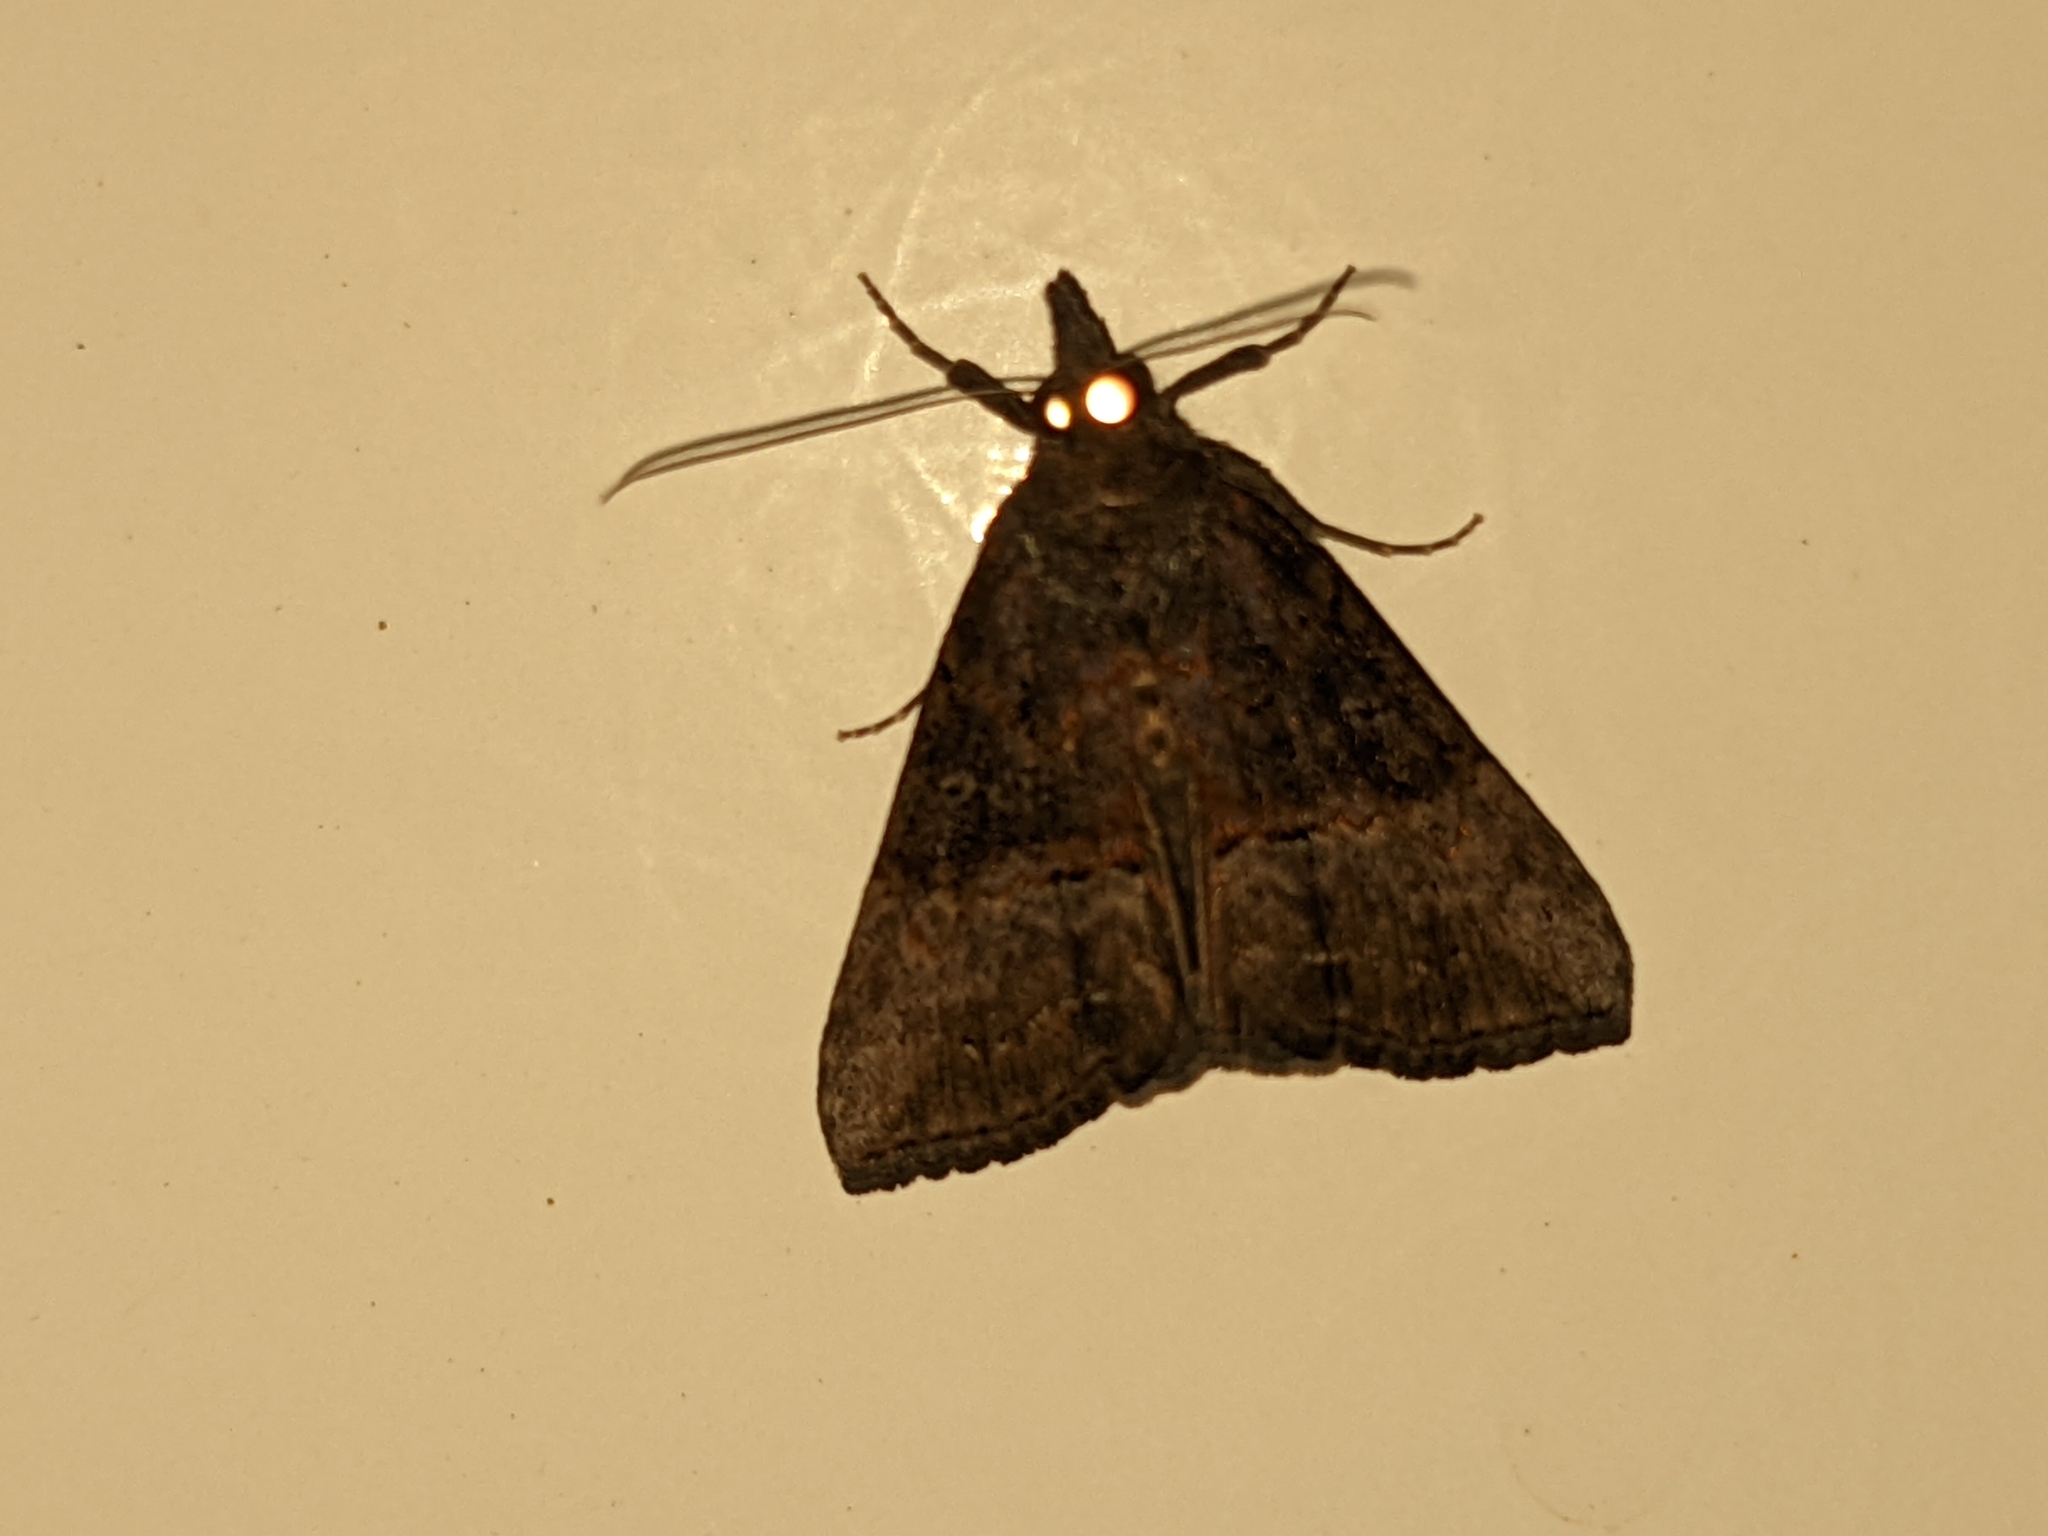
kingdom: Animalia
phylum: Arthropoda
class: Insecta
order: Lepidoptera
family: Erebidae
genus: Hypena
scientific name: Hypena scabra
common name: Green cloverworm
